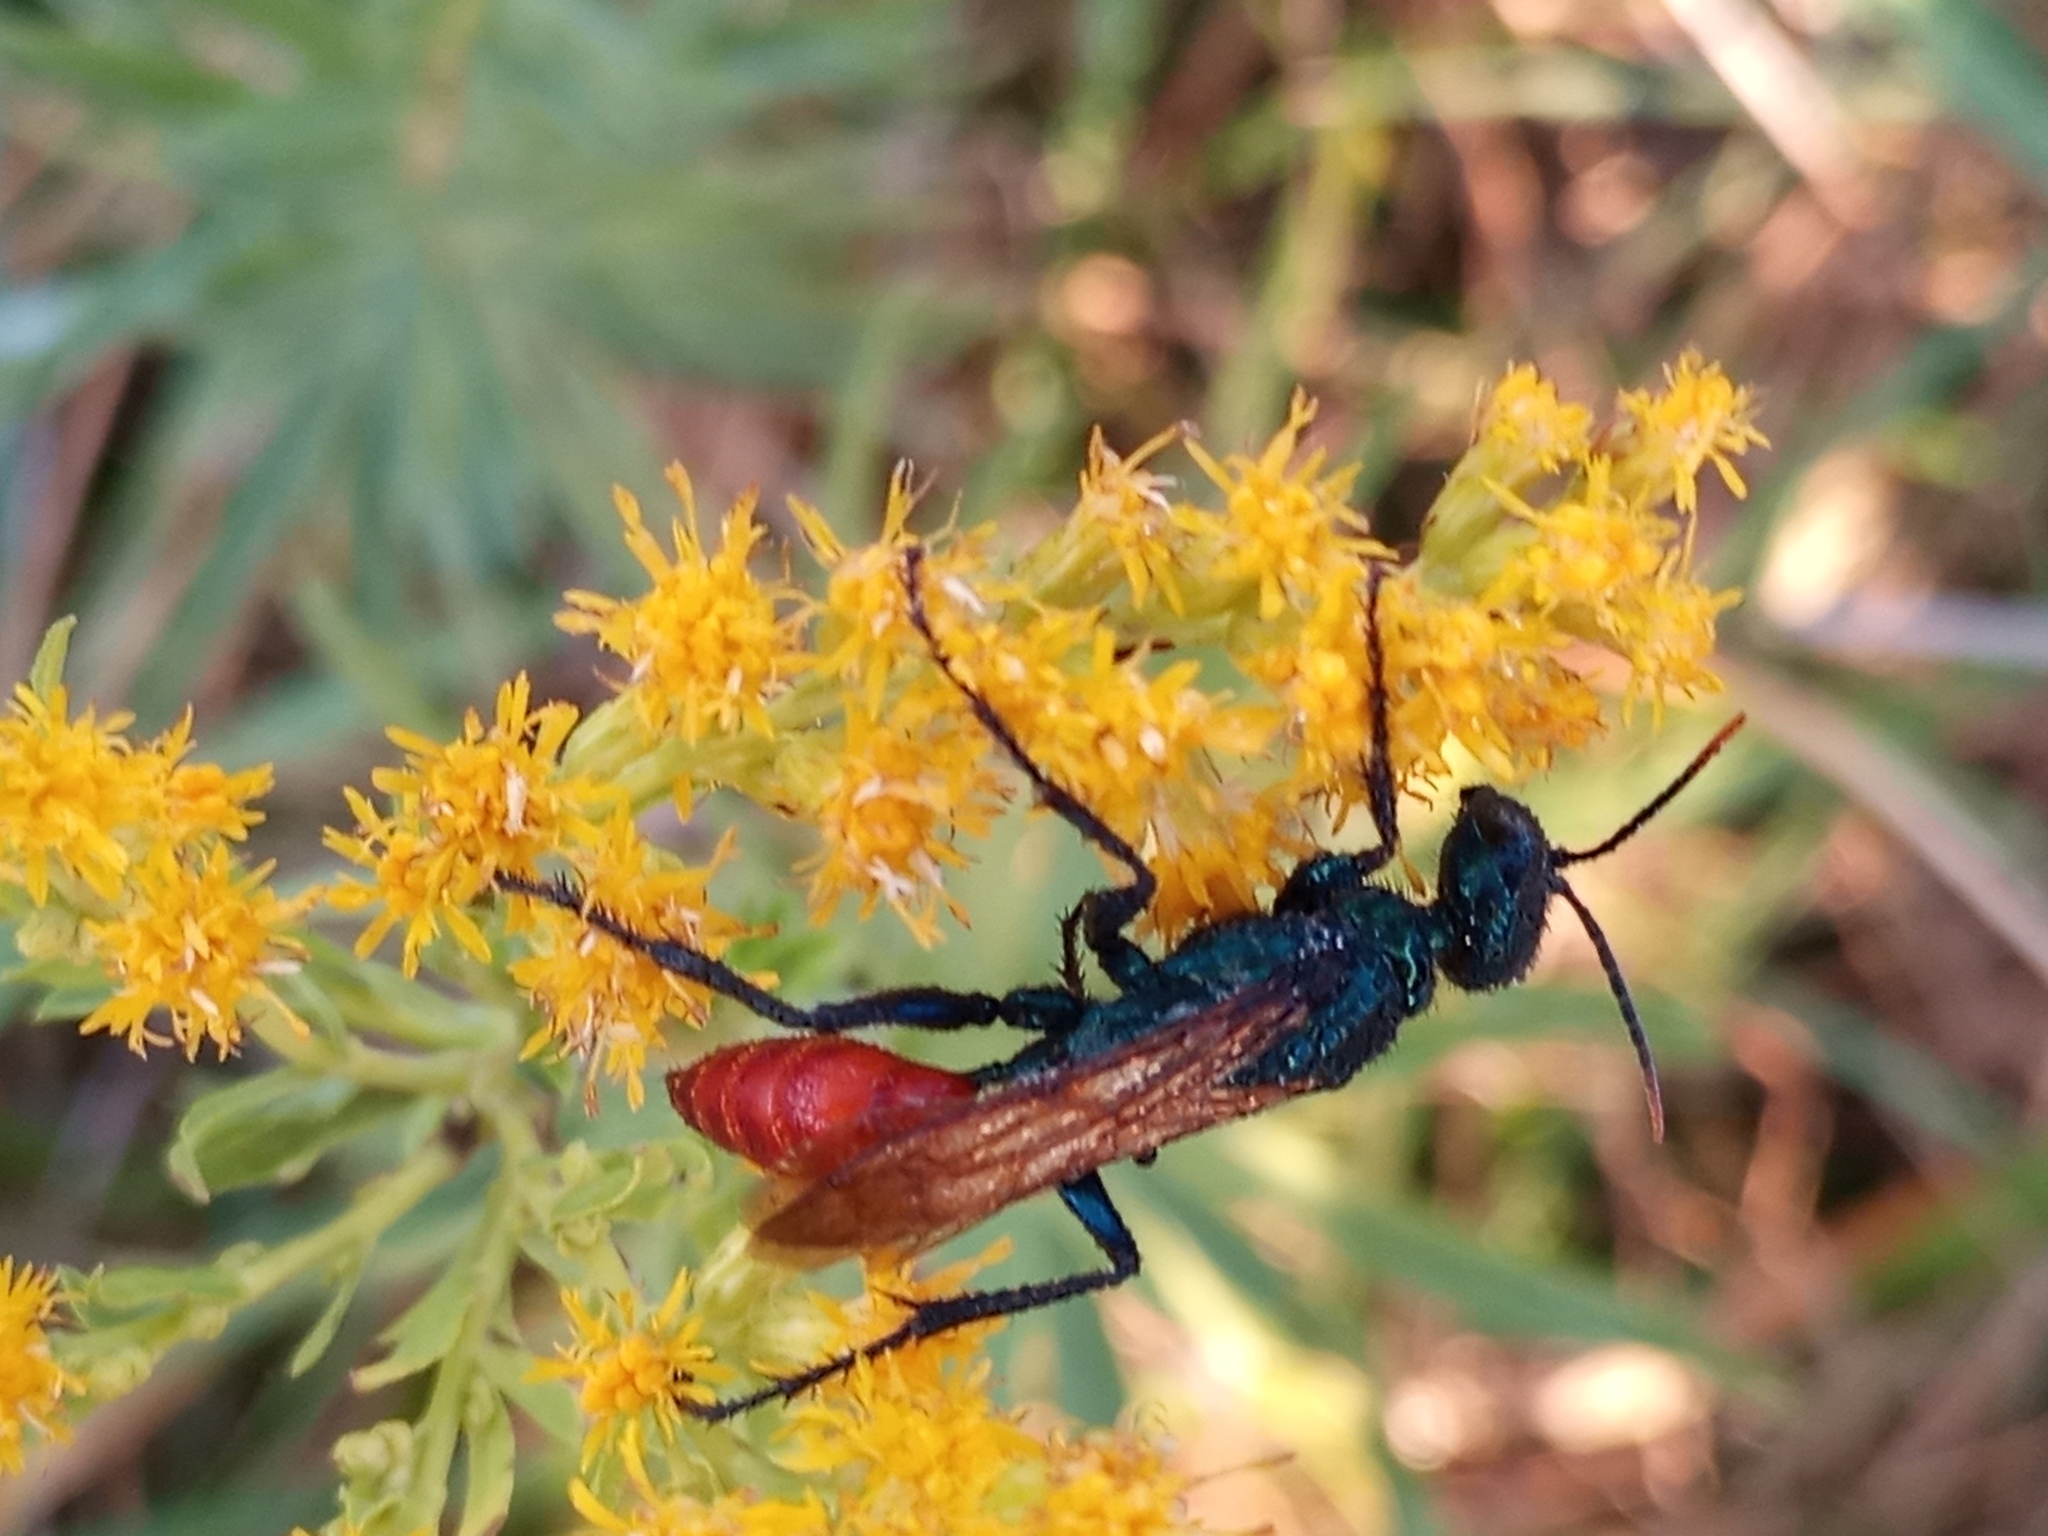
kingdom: Animalia
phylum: Arthropoda
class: Insecta
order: Hymenoptera
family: Sphecidae
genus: Chlorion
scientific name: Chlorion hemipyrrhum
